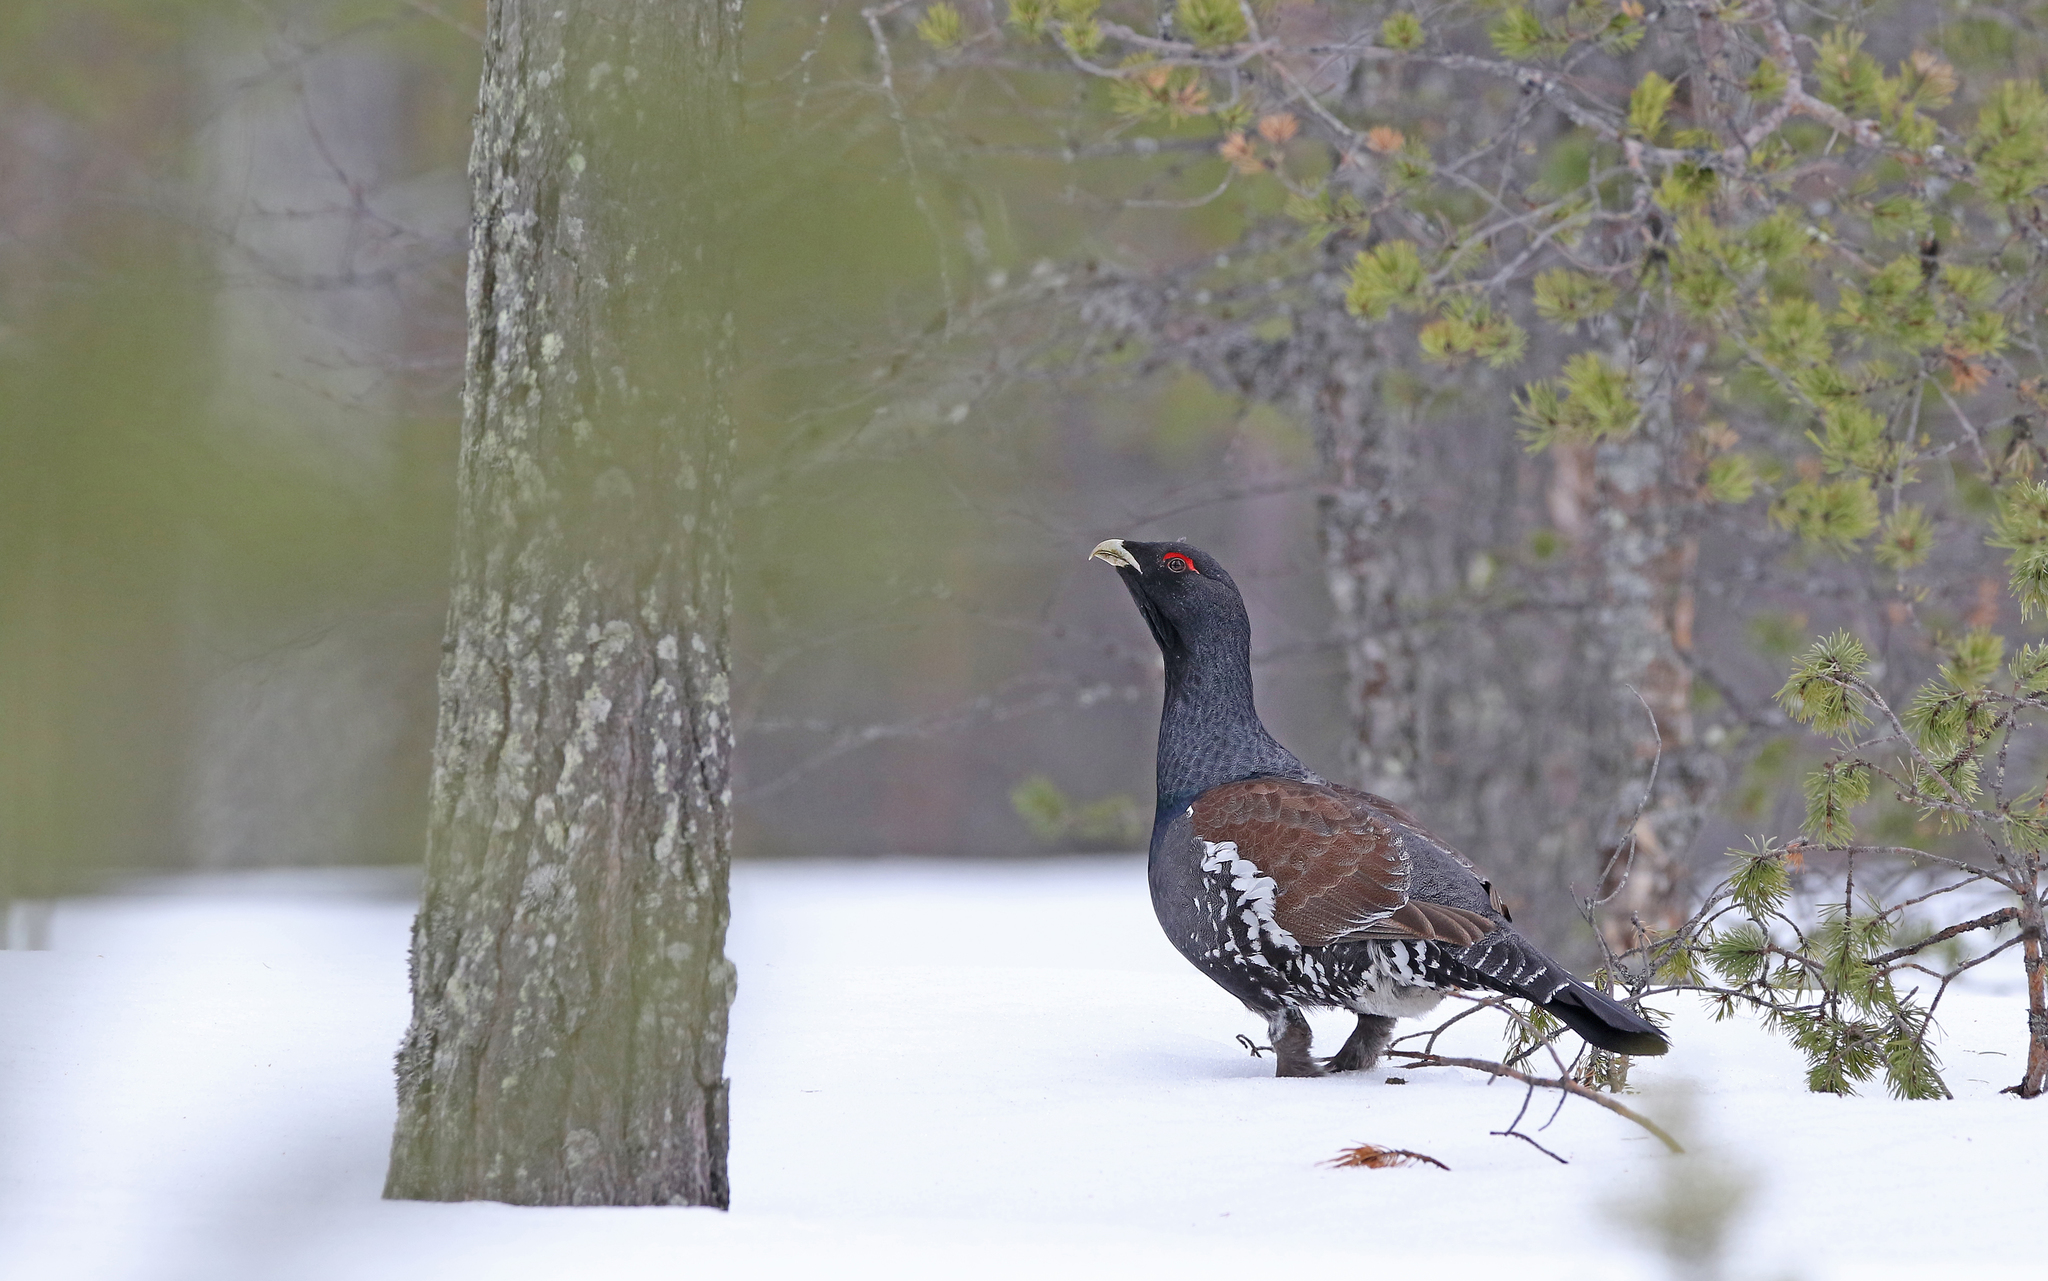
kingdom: Animalia
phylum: Chordata
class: Aves
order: Galliformes
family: Phasianidae
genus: Tetrao
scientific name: Tetrao urogallus
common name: Western capercaillie
